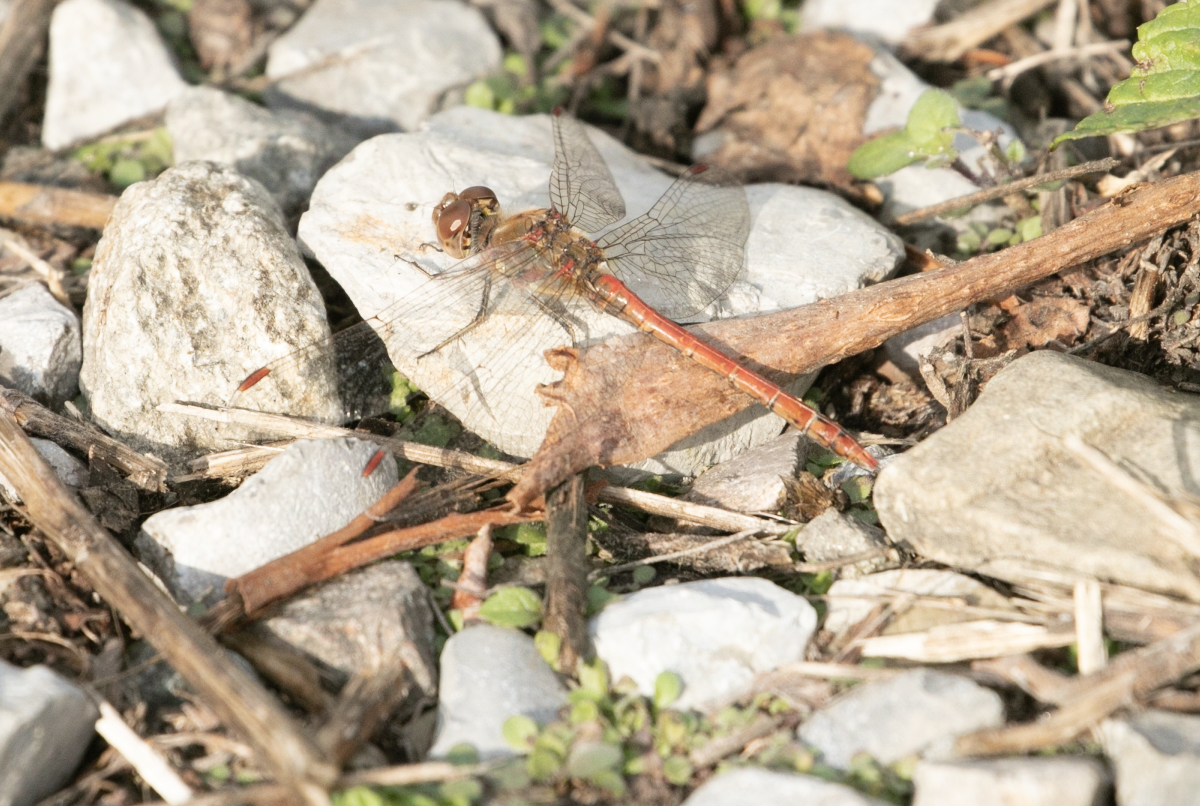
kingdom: Animalia
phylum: Arthropoda
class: Insecta
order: Odonata
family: Libellulidae
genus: Sympetrum
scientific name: Sympetrum striolatum
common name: Common darter
